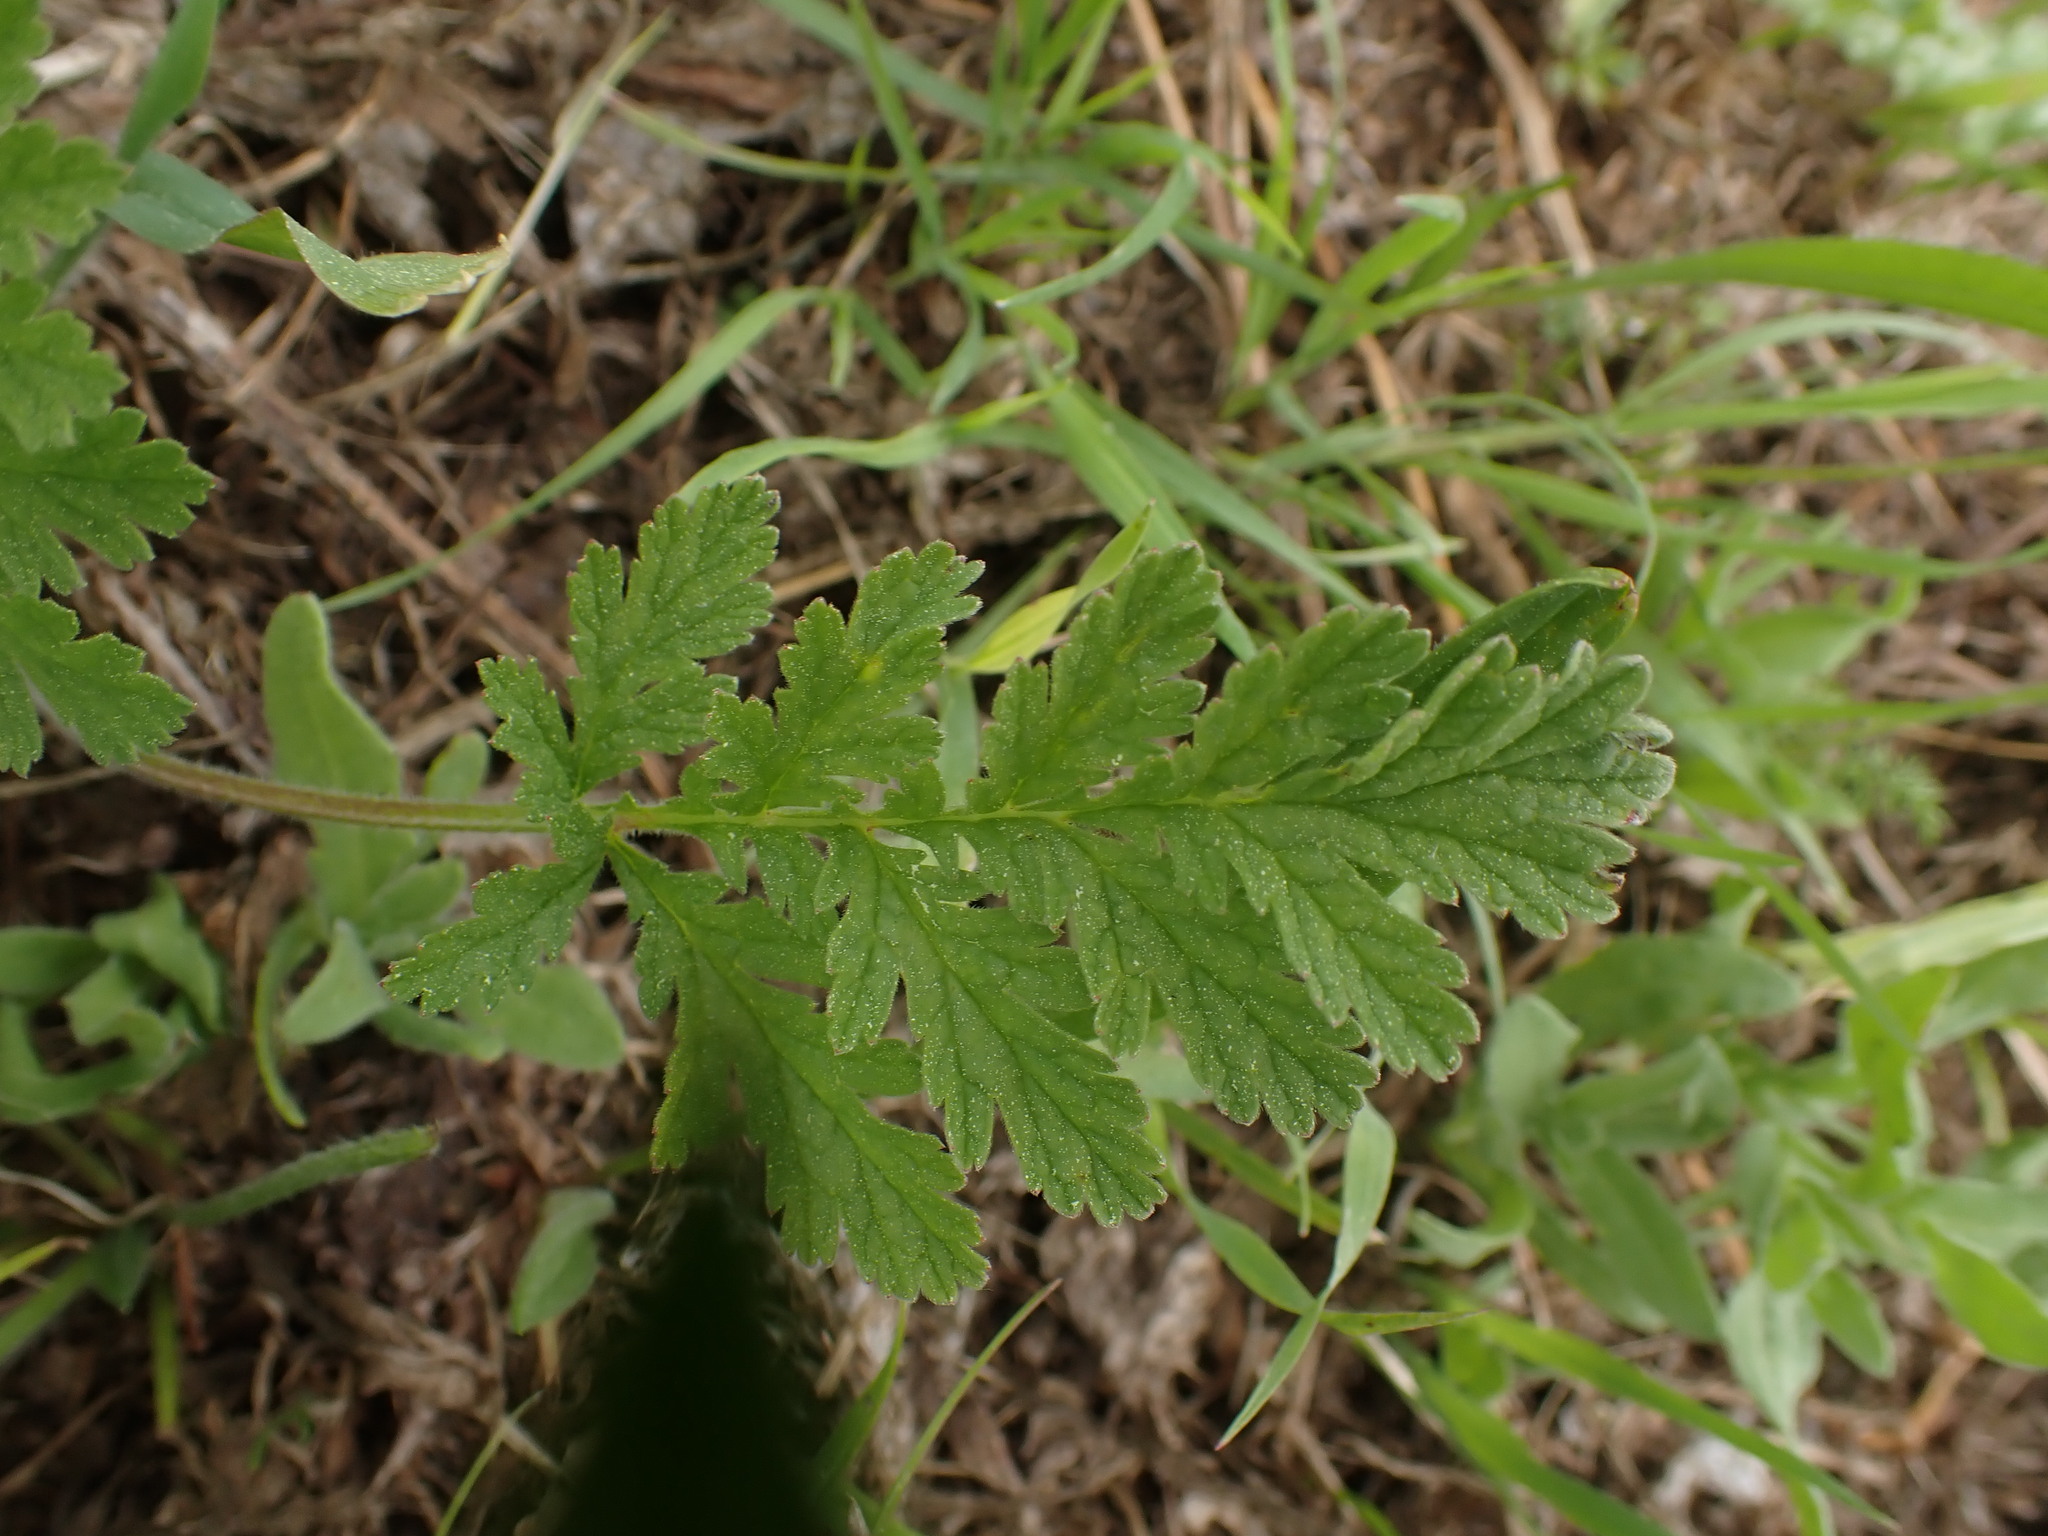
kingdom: Plantae
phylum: Tracheophyta
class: Magnoliopsida
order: Geraniales
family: Geraniaceae
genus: Erodium
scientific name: Erodium ciconium
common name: Common stork's bill
